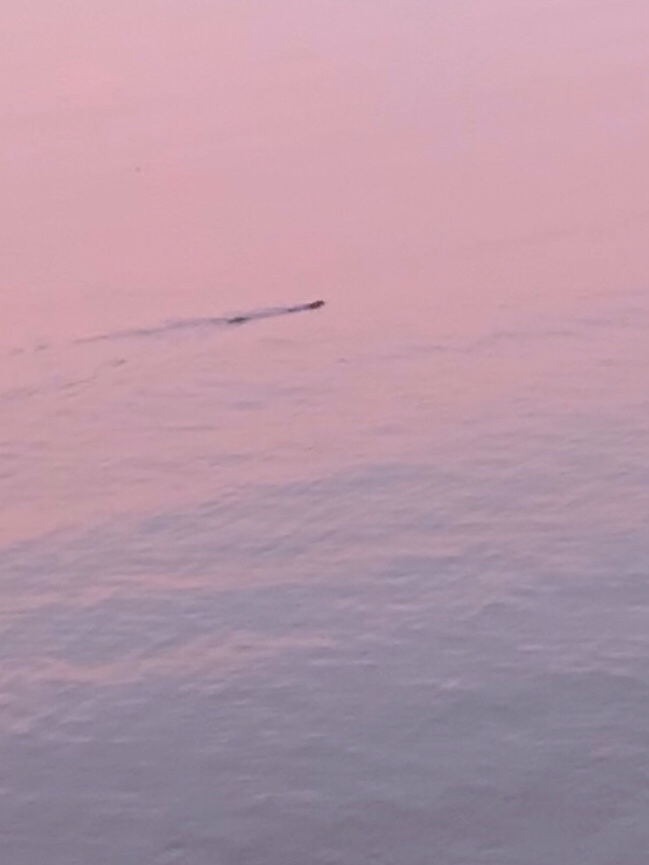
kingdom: Animalia
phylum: Chordata
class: Mammalia
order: Carnivora
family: Mustelidae
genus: Lontra
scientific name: Lontra canadensis
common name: North american river otter
